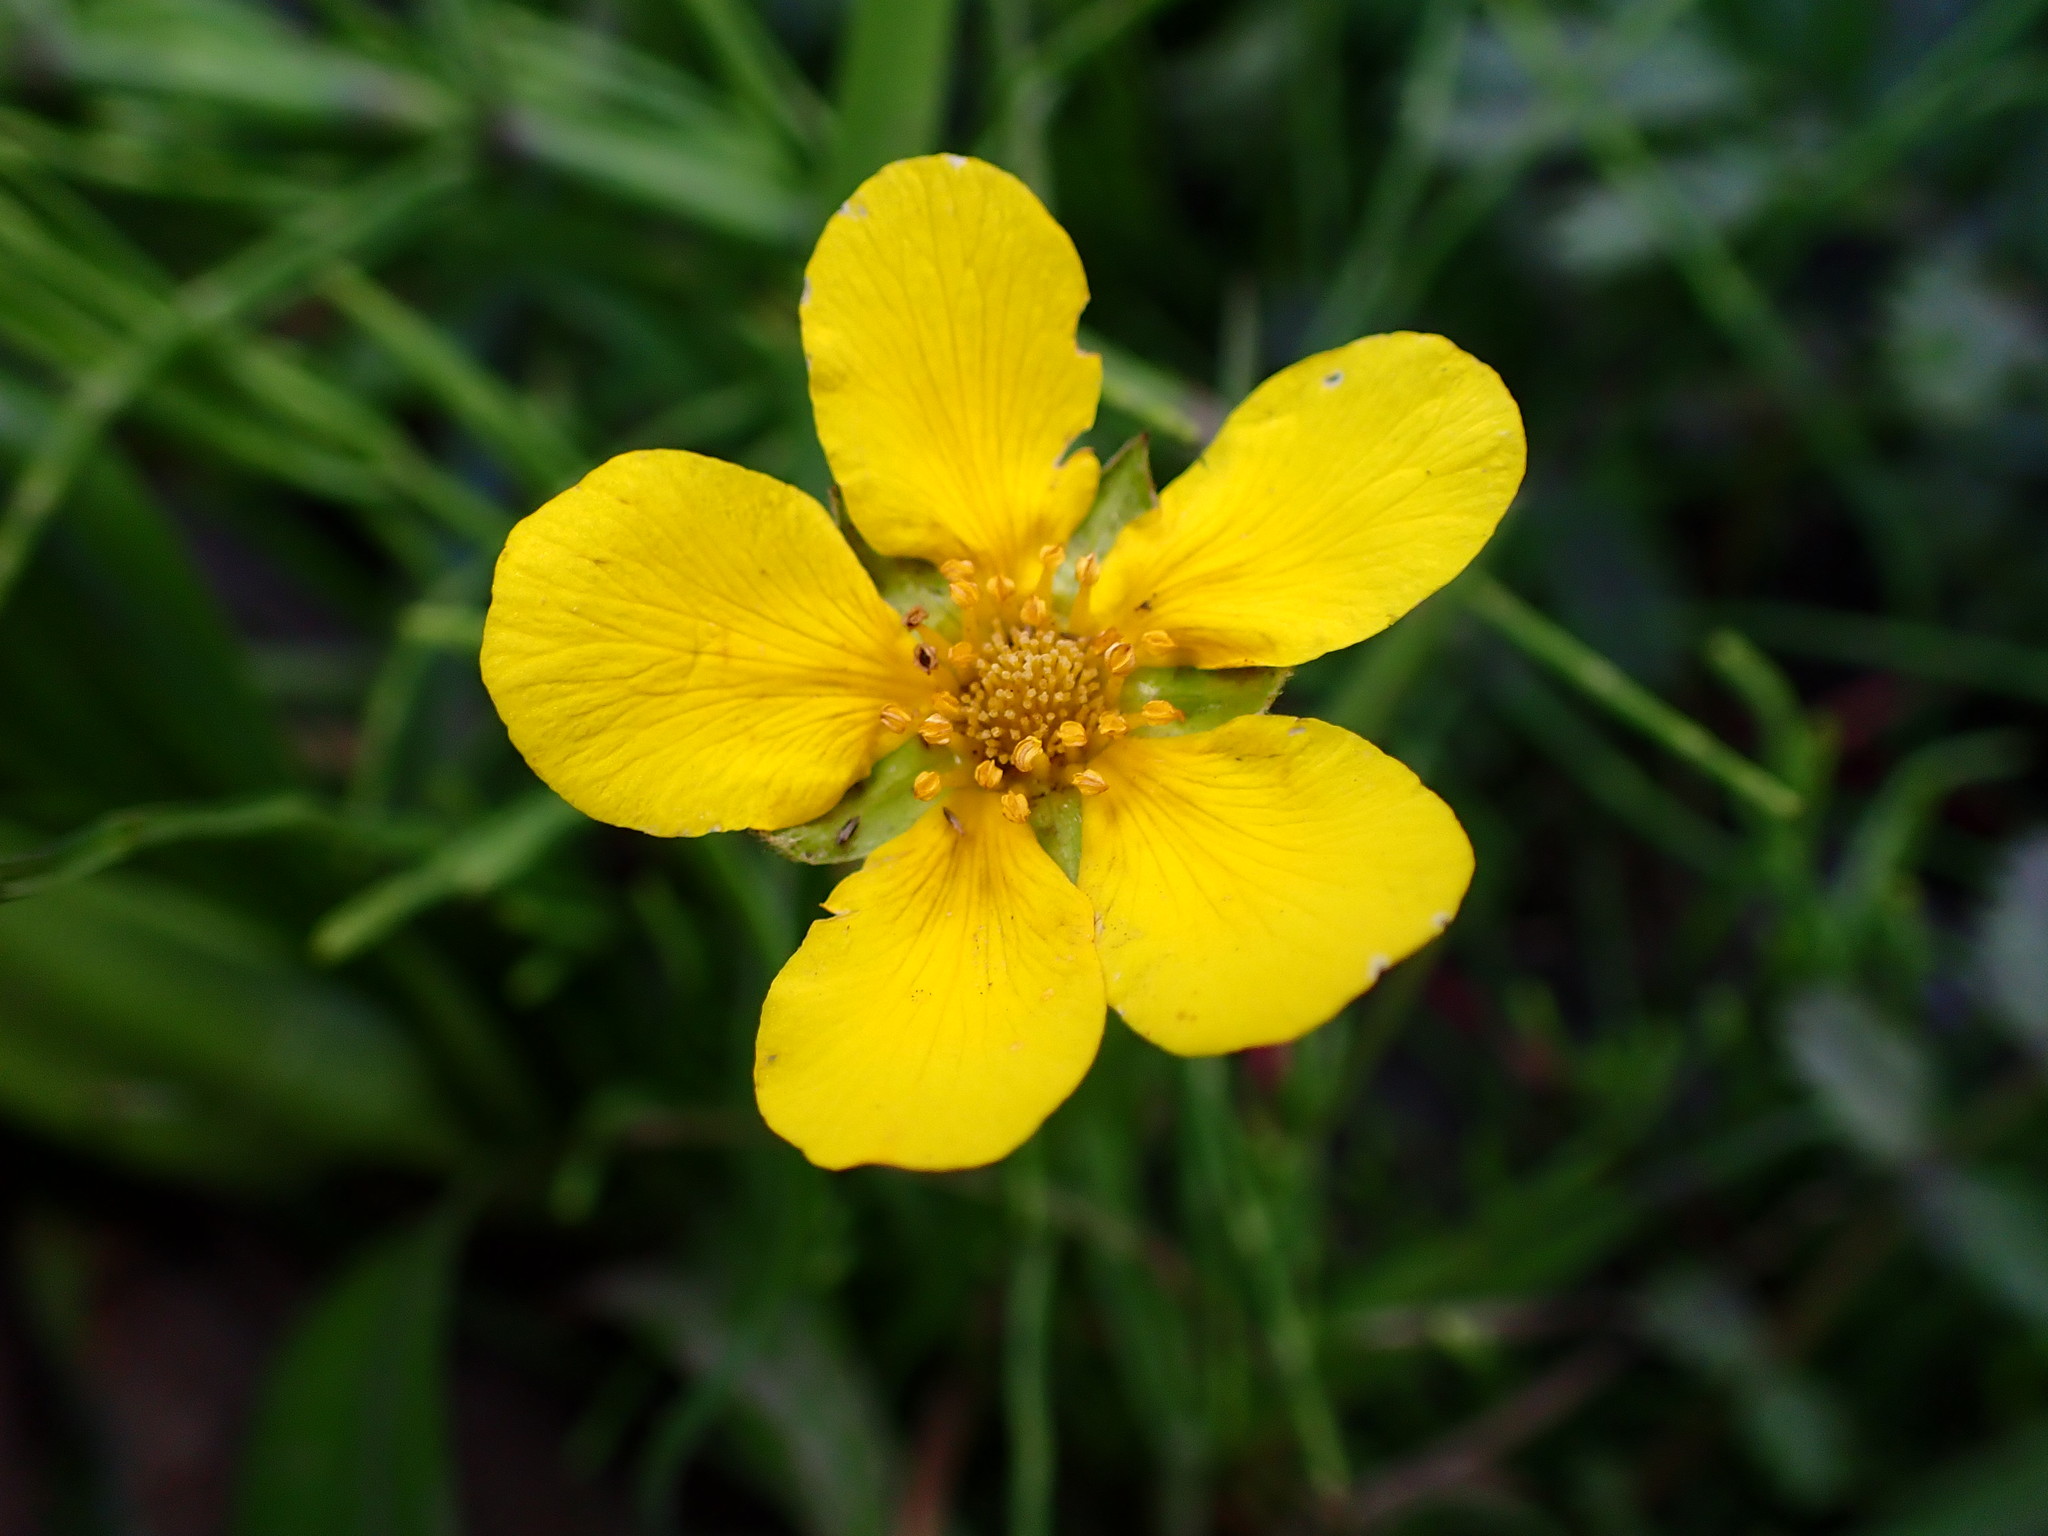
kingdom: Plantae
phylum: Tracheophyta
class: Magnoliopsida
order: Rosales
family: Rosaceae
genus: Argentina
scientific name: Argentina anserina
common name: Common silverweed
